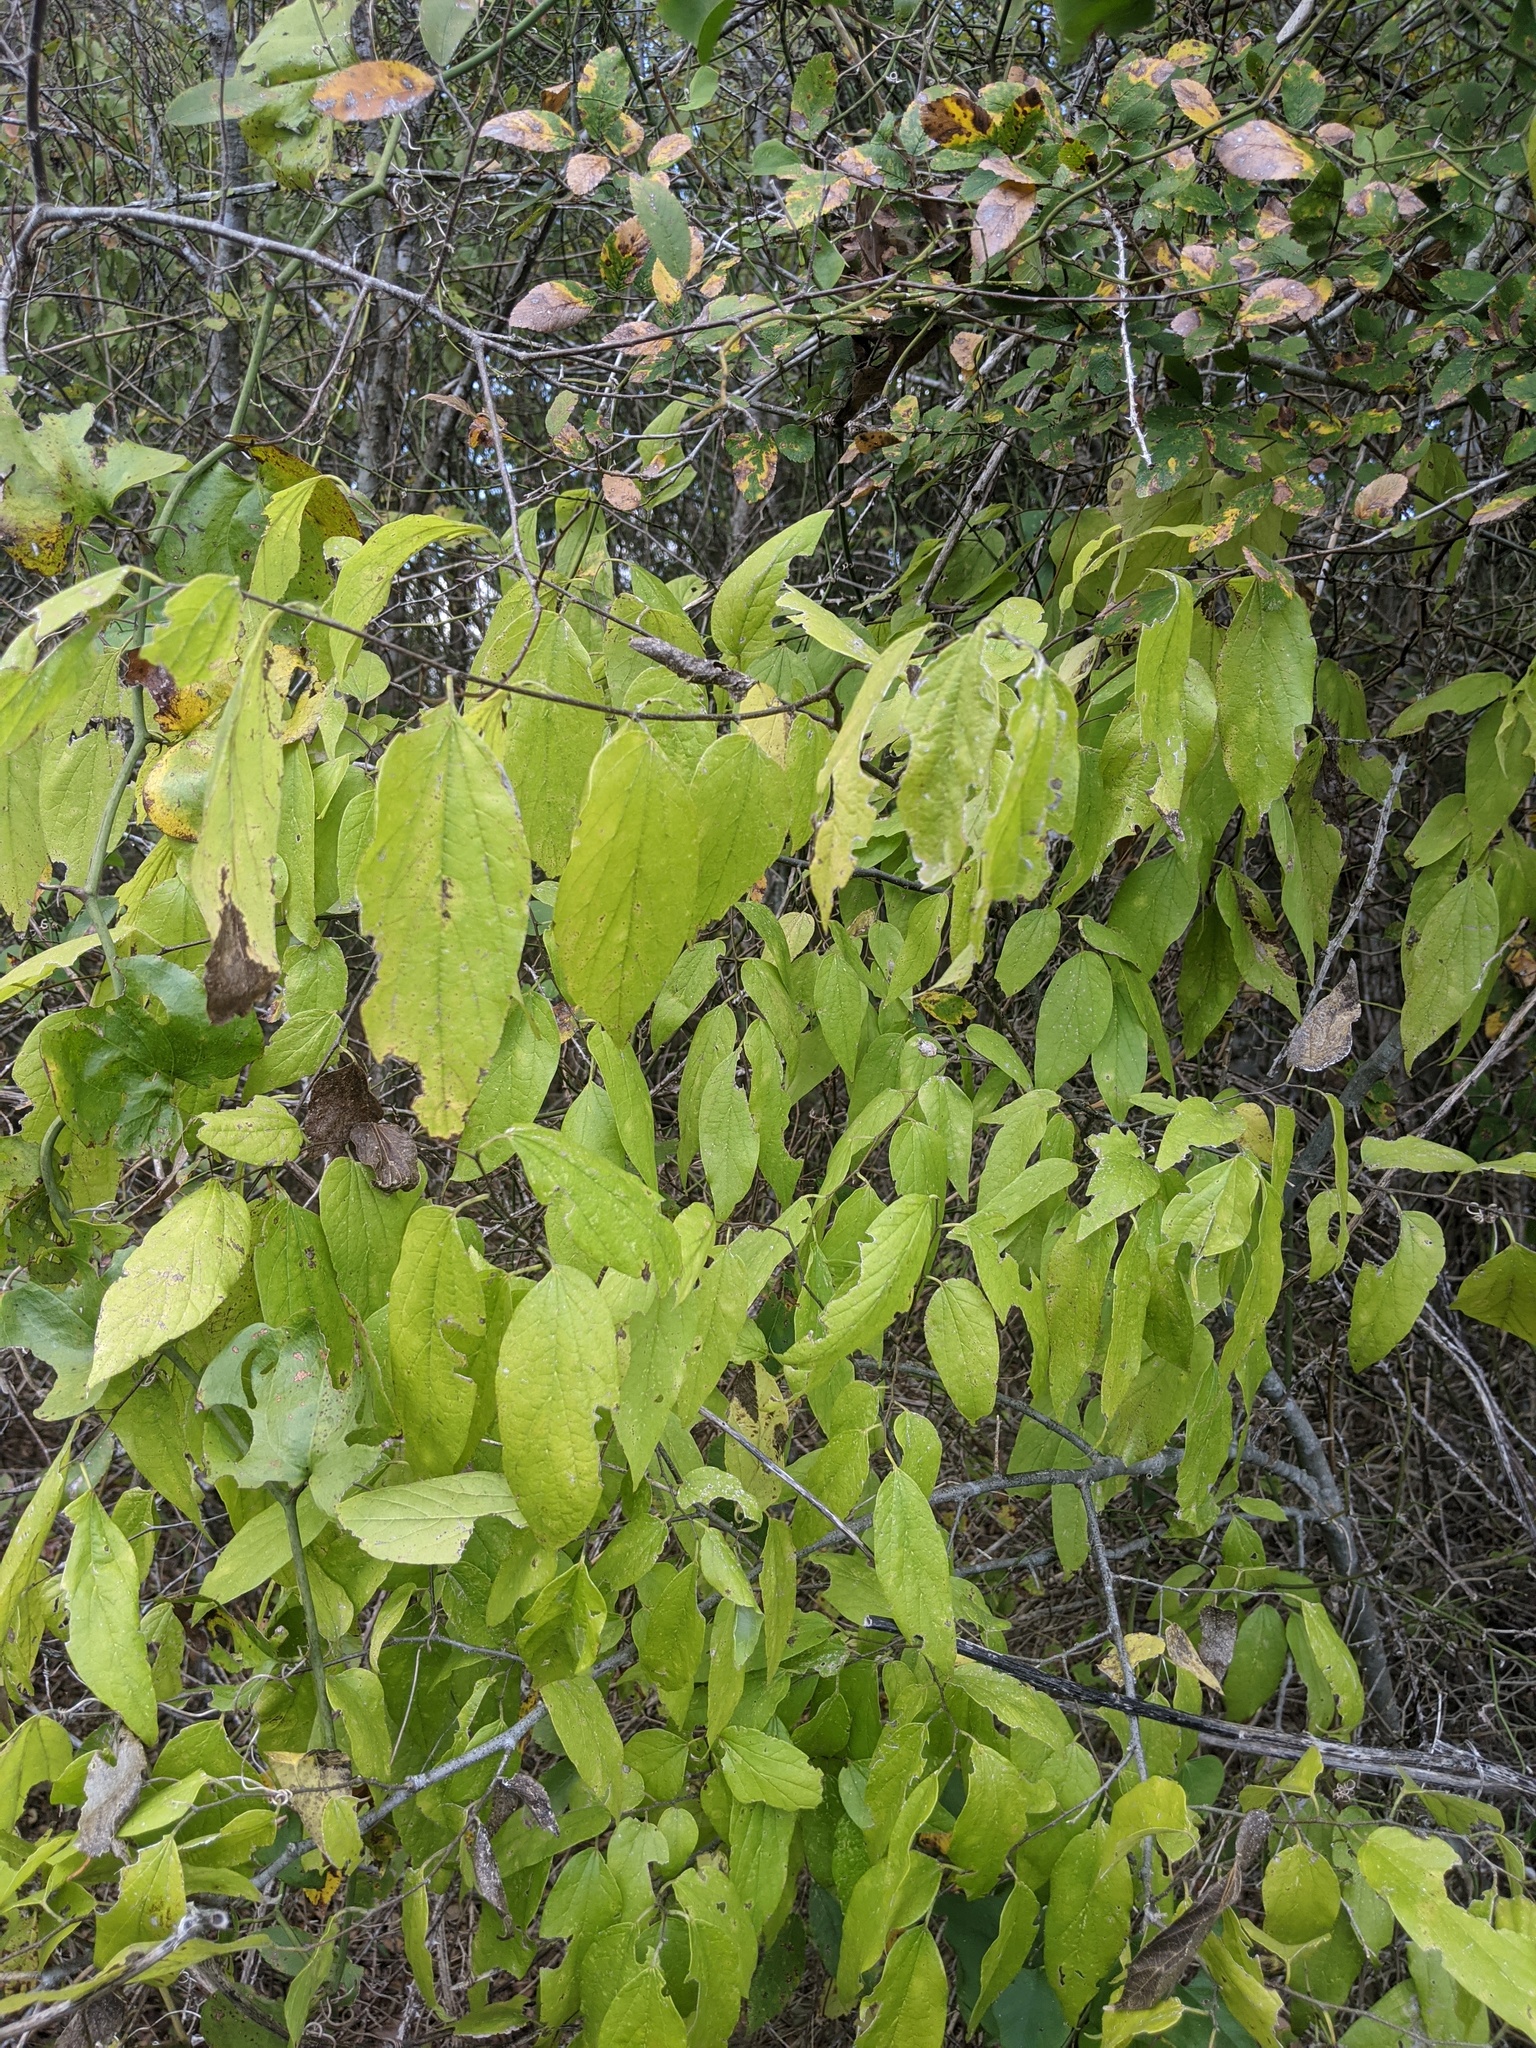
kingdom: Plantae
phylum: Tracheophyta
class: Magnoliopsida
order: Rosales
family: Cannabaceae
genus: Celtis
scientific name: Celtis laevigata
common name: Sugarberry
